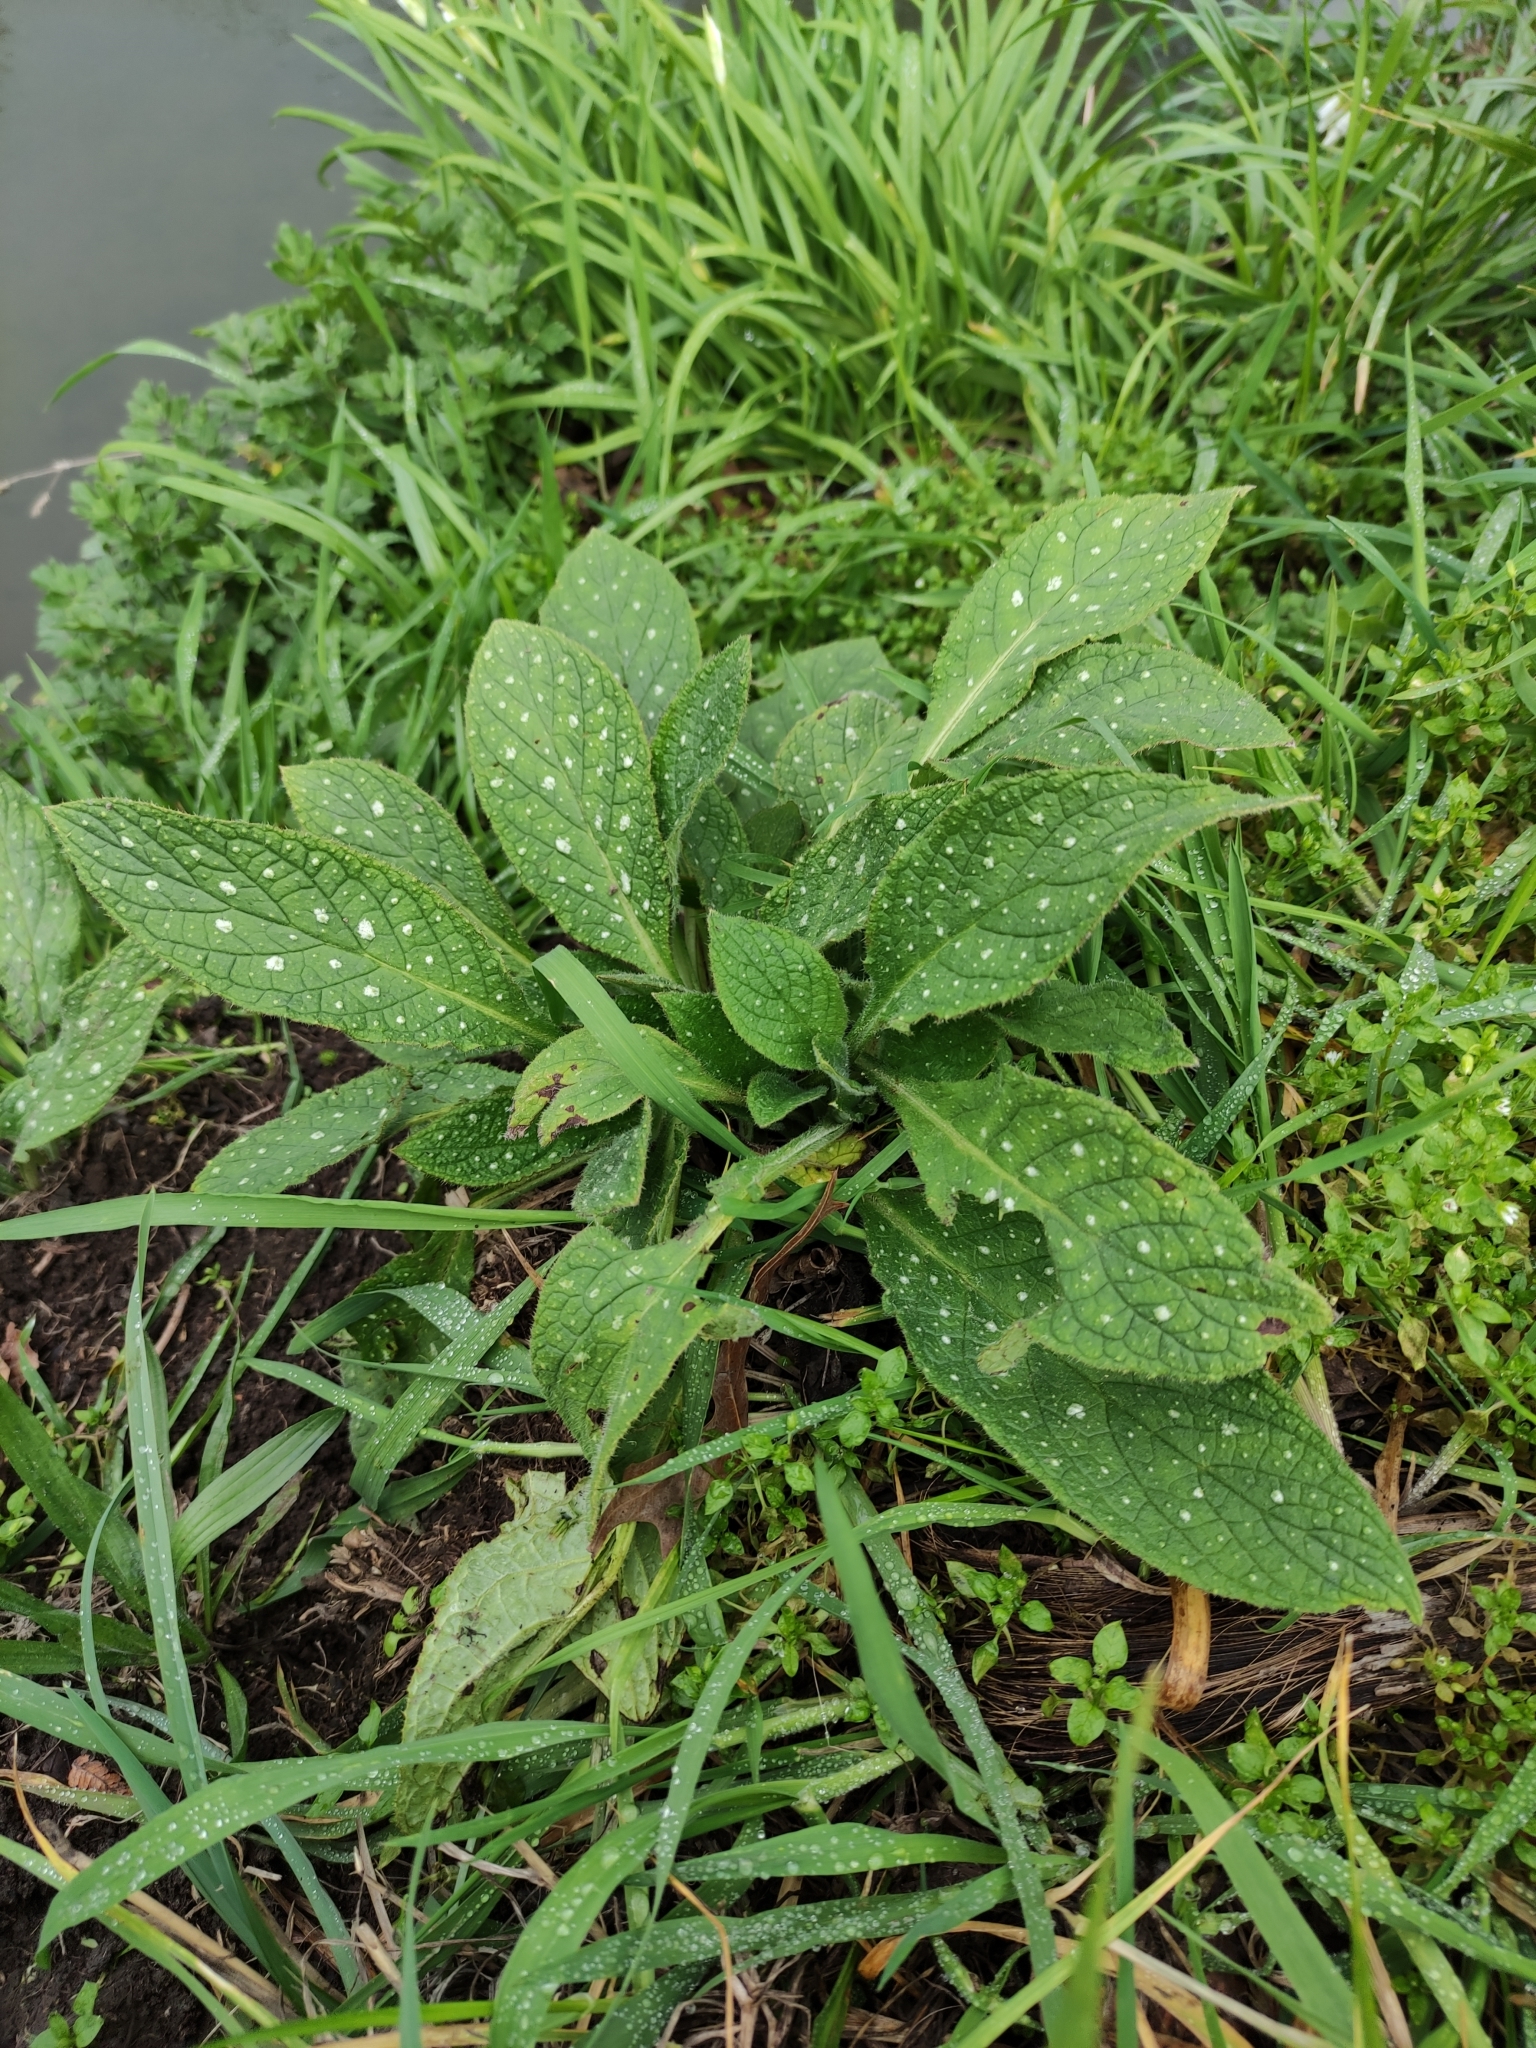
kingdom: Plantae
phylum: Tracheophyta
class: Magnoliopsida
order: Boraginales
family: Boraginaceae
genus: Pentaglottis
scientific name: Pentaglottis sempervirens
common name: Green alkanet
